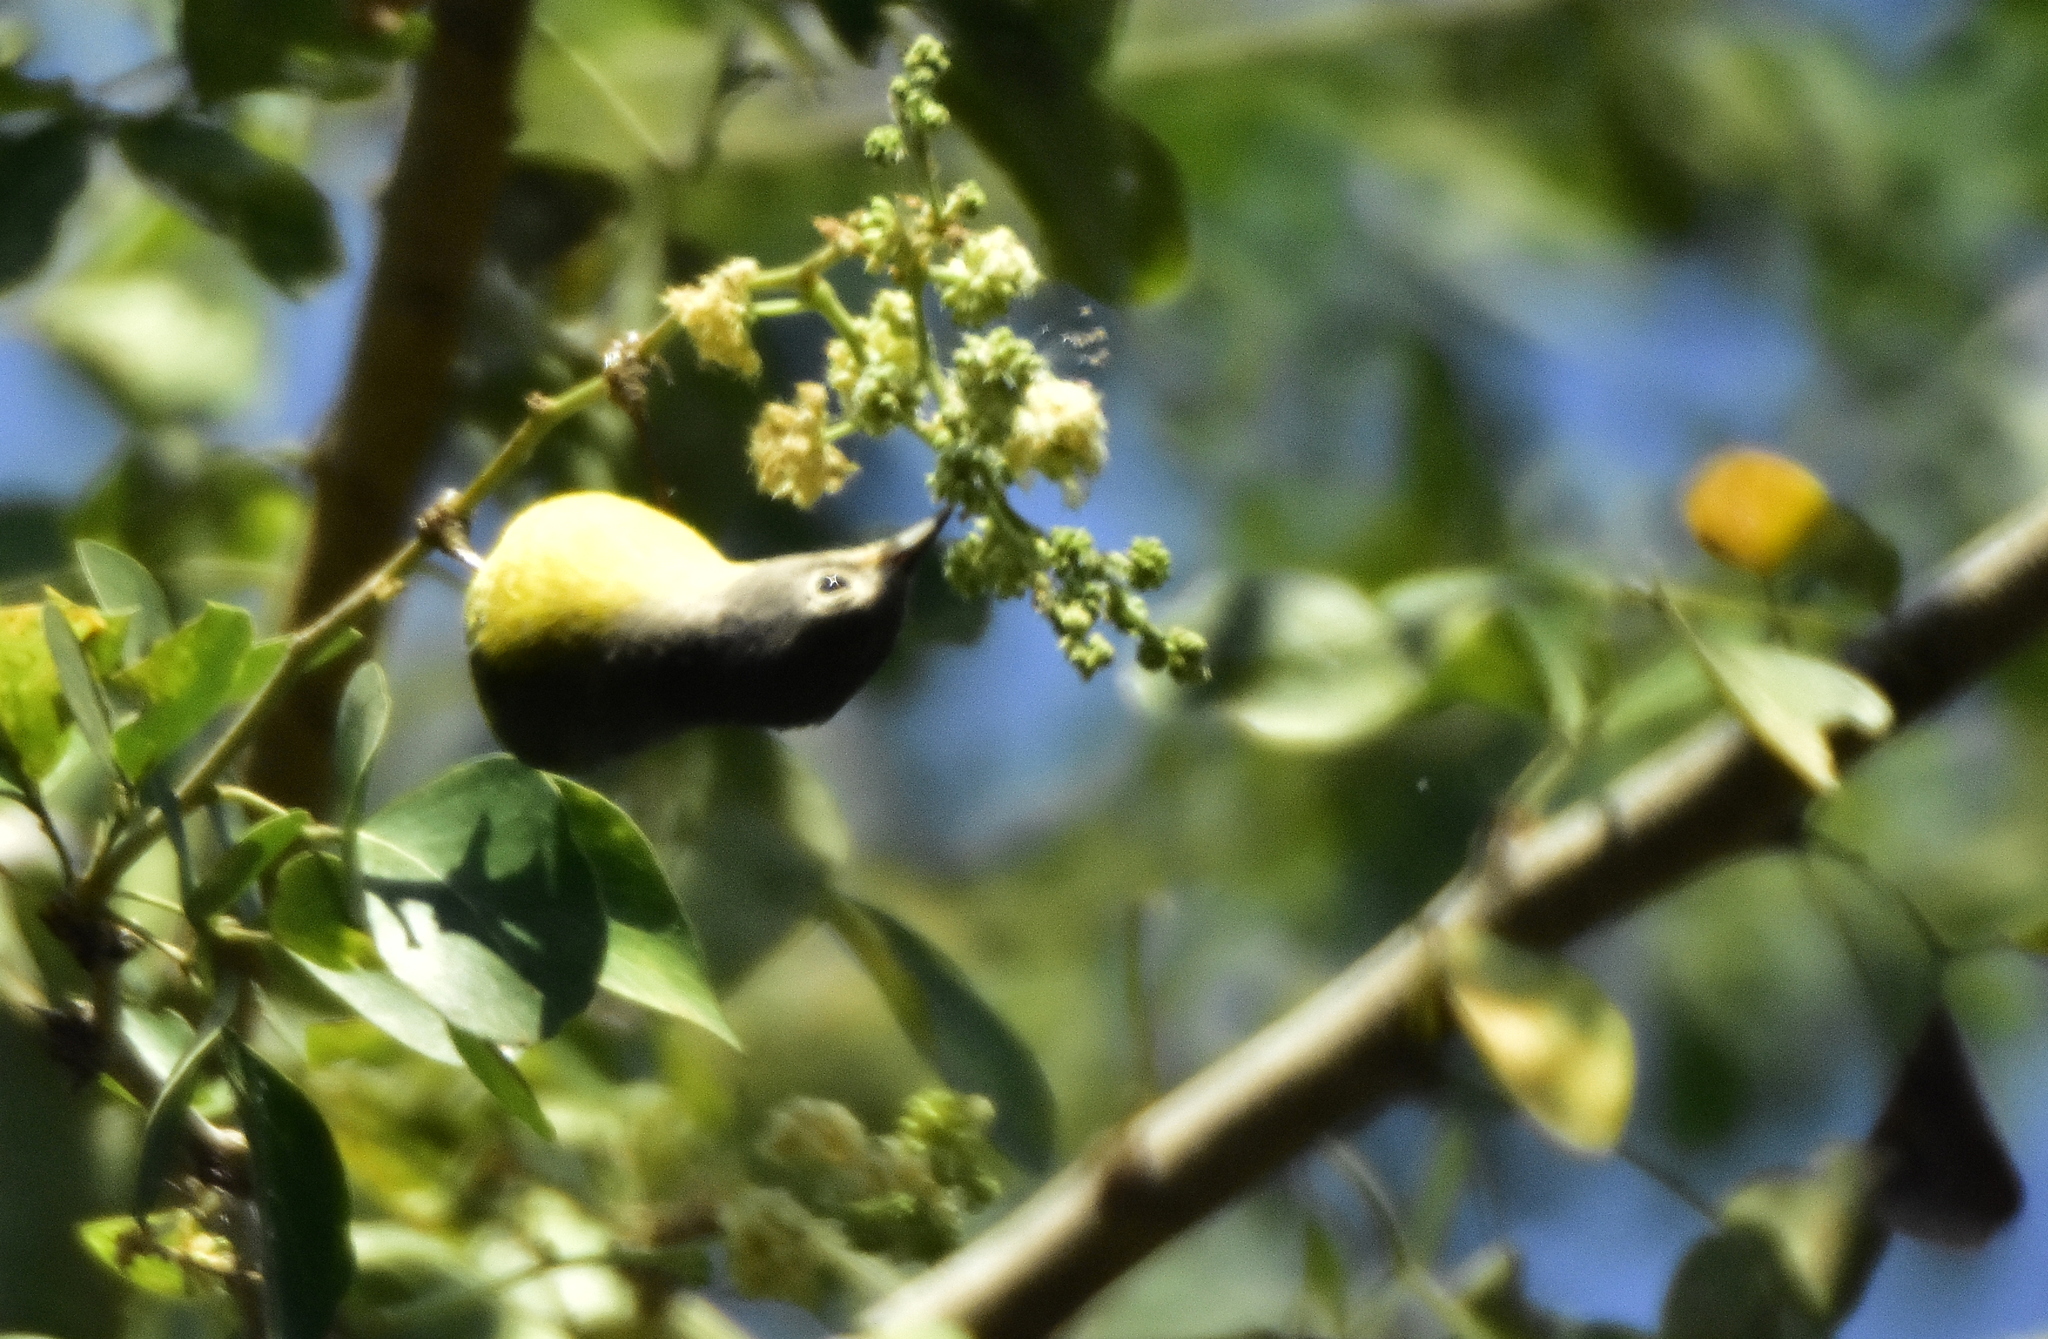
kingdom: Animalia
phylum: Chordata
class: Aves
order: Passeriformes
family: Parulidae
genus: Leiothlypis
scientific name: Leiothlypis ruficapilla
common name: Nashville warbler
